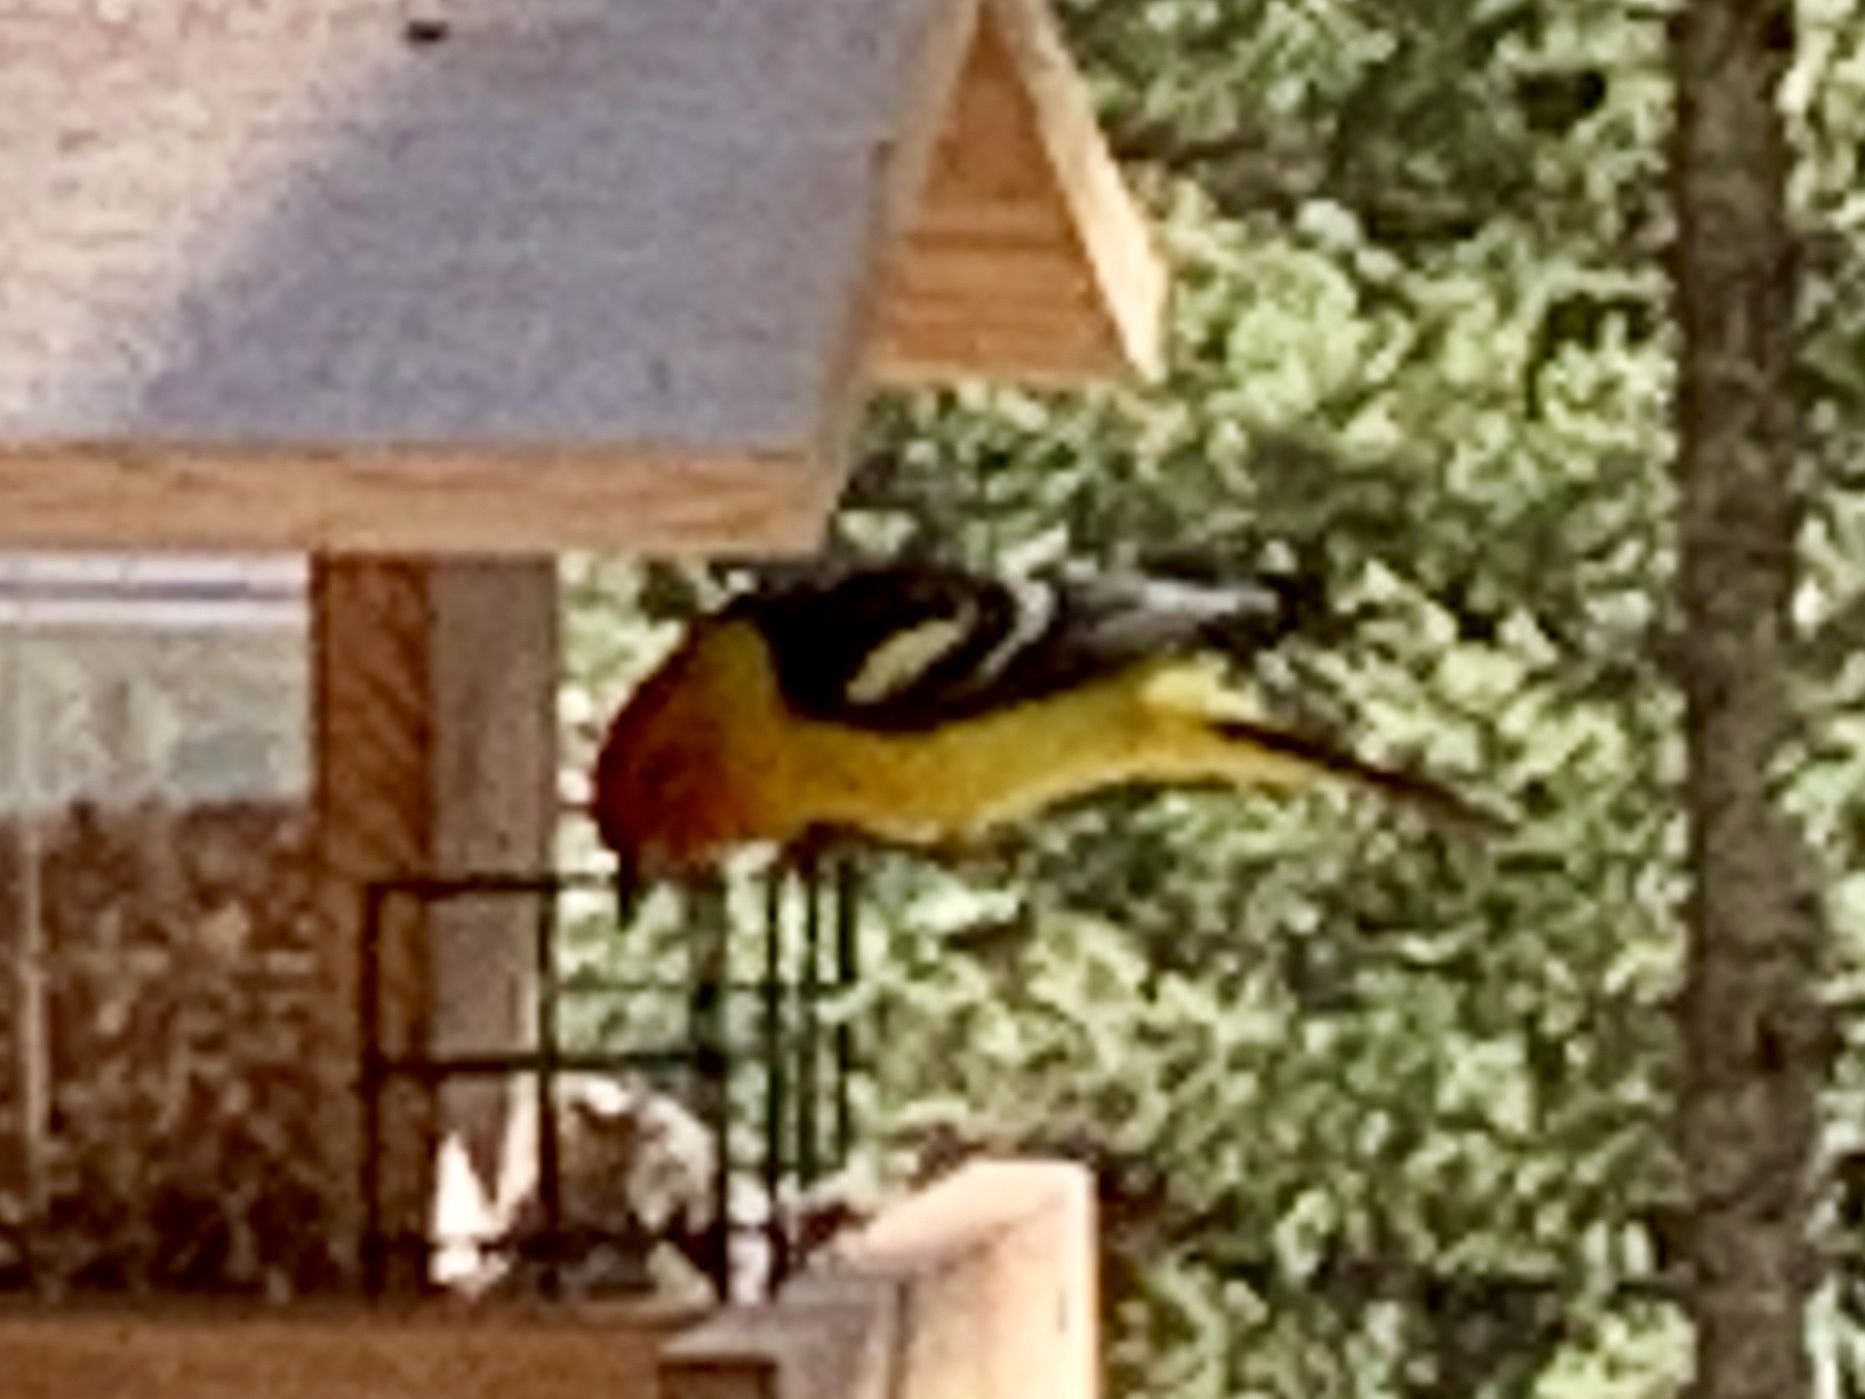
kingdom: Animalia
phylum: Chordata
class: Aves
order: Passeriformes
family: Cardinalidae
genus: Piranga
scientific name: Piranga ludoviciana
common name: Western tanager
